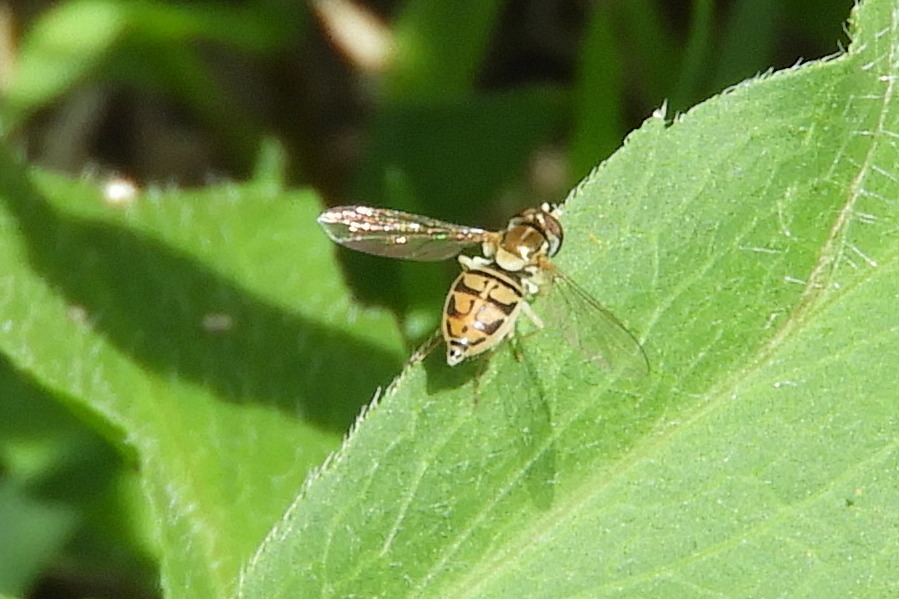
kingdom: Animalia
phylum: Arthropoda
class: Insecta
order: Diptera
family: Syrphidae
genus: Toxomerus
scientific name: Toxomerus marginatus
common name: Syrphid fly
